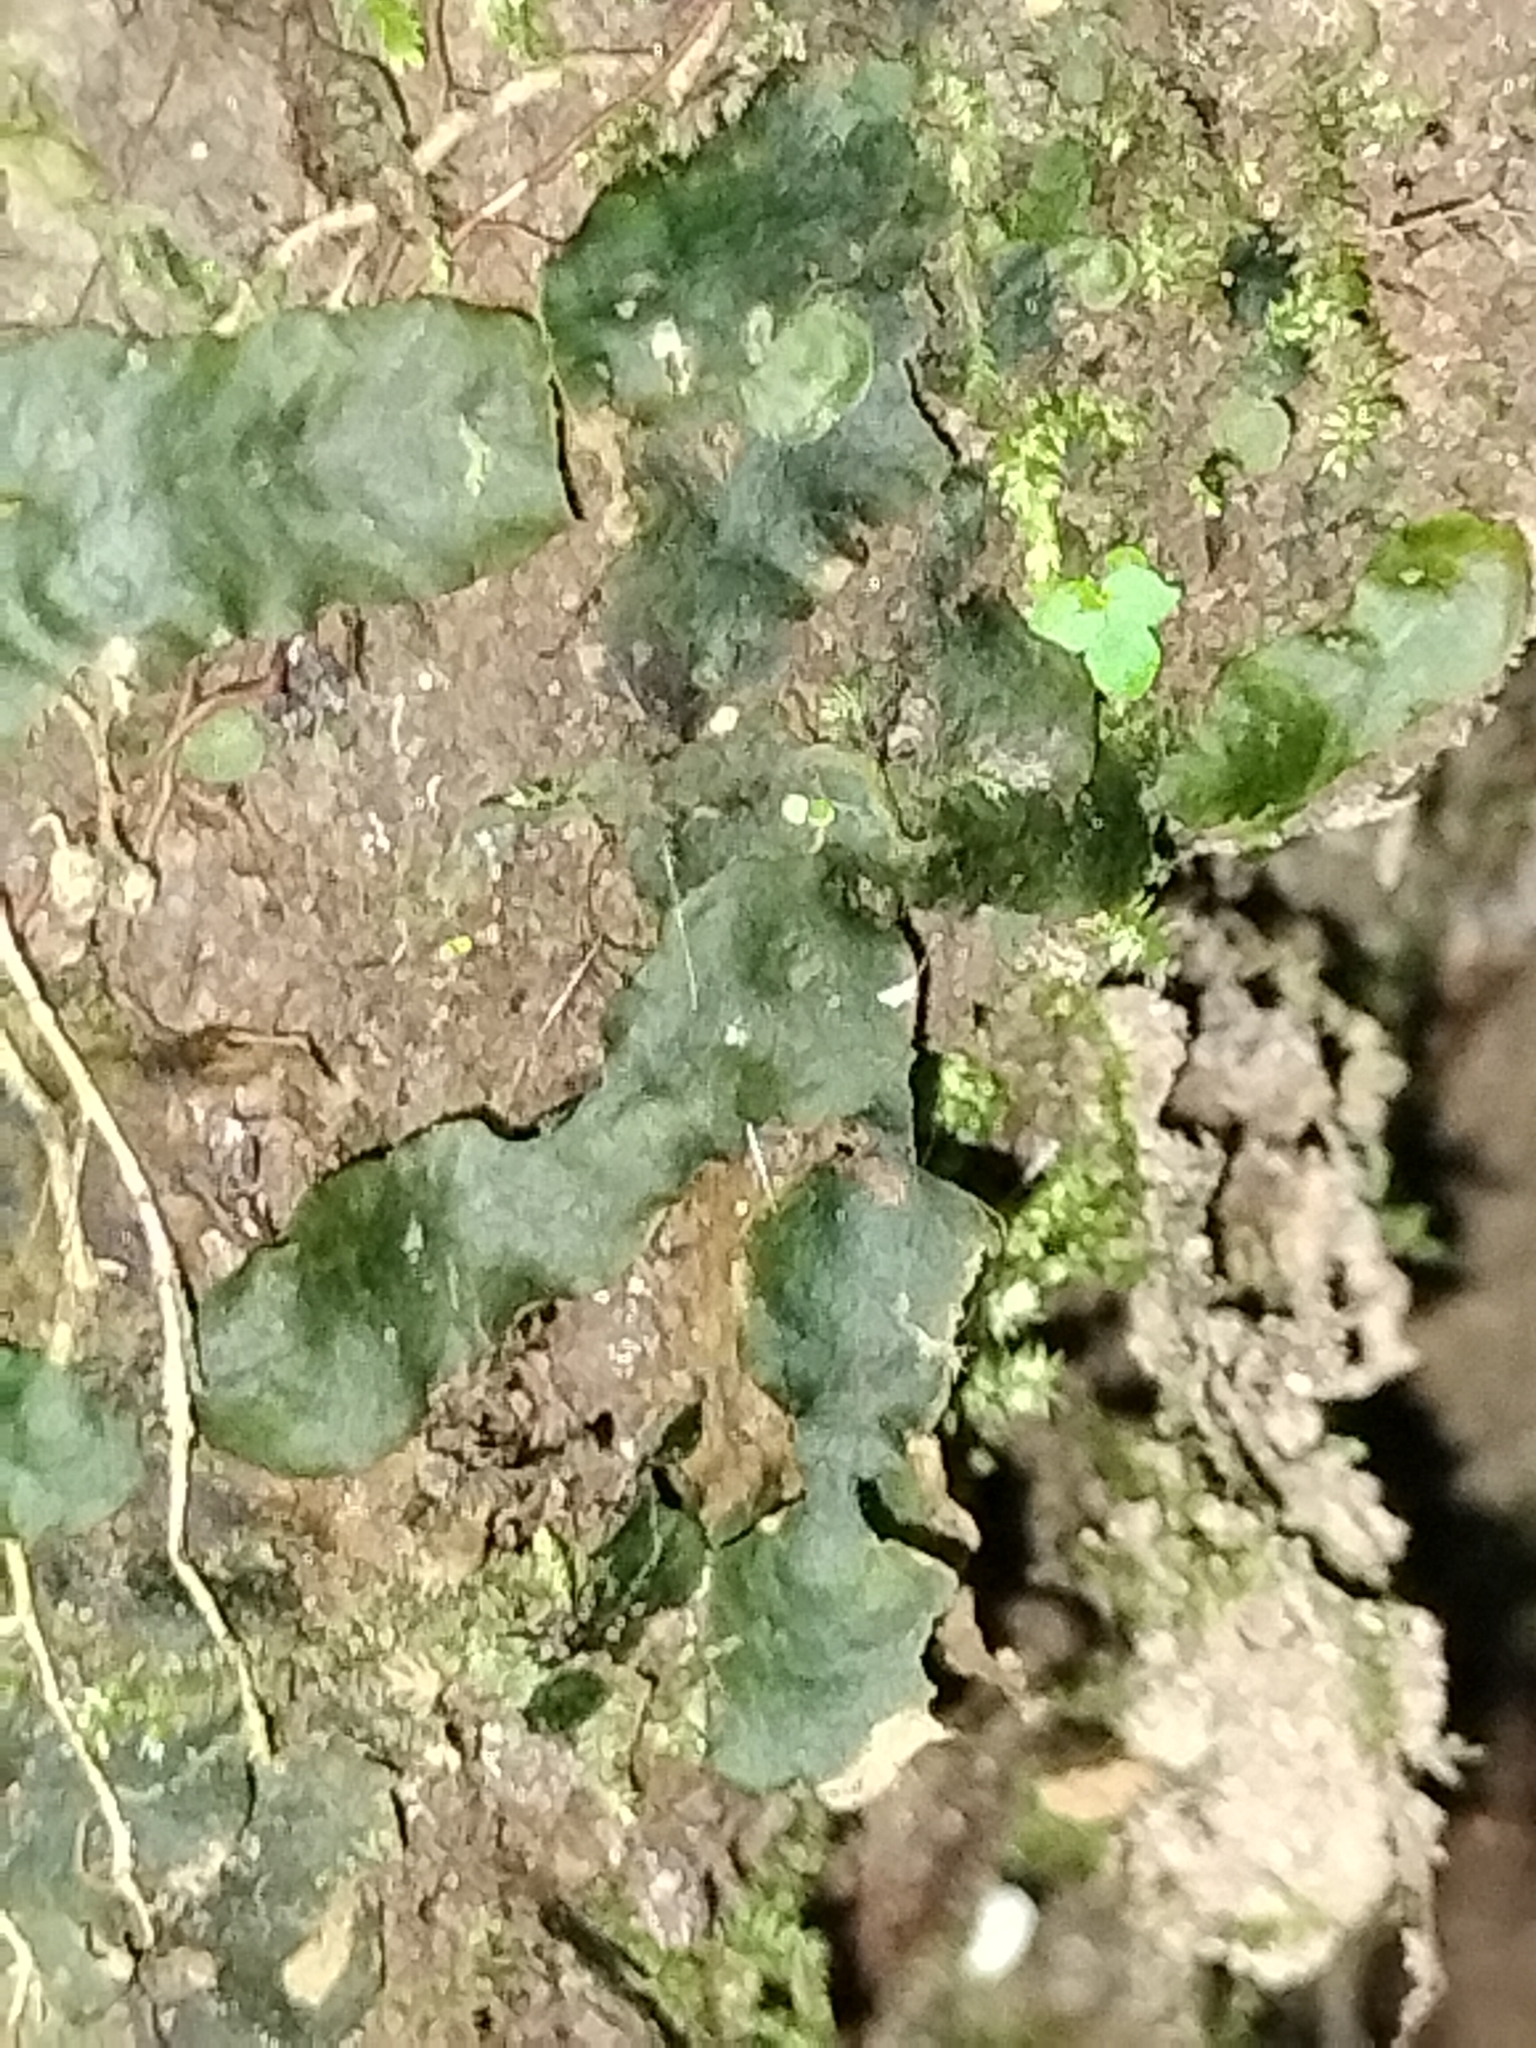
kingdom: Plantae
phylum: Marchantiophyta
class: Marchantiopsida
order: Marchantiales
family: Dumortieraceae
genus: Dumortiera
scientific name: Dumortiera hirsuta
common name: Dumortier's liverwort
